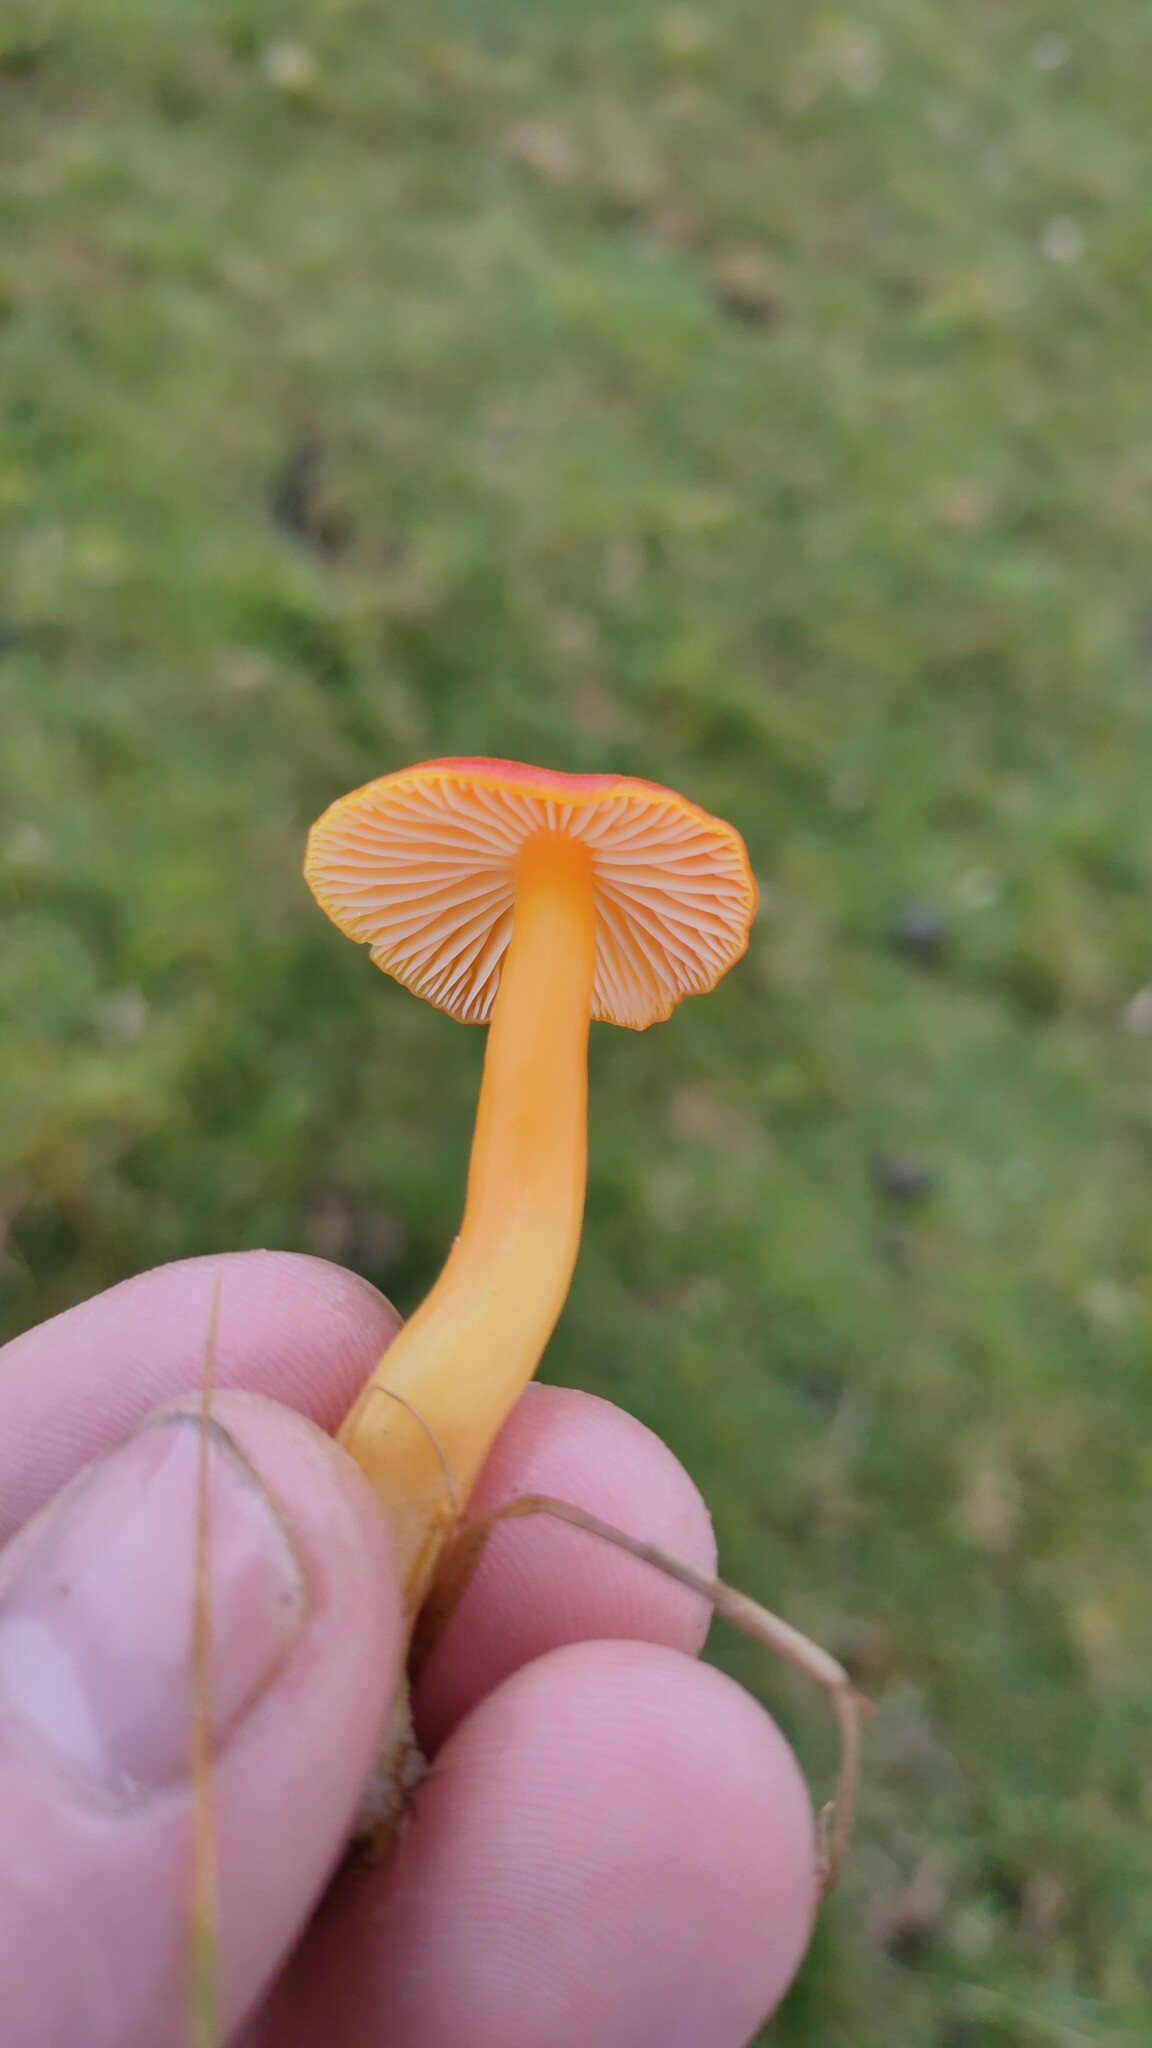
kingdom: Fungi
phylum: Basidiomycota
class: Agaricomycetes
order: Agaricales
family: Hygrophoraceae
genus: Hygrocybe
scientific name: Hygrocybe reidii
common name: Honey waxcap
